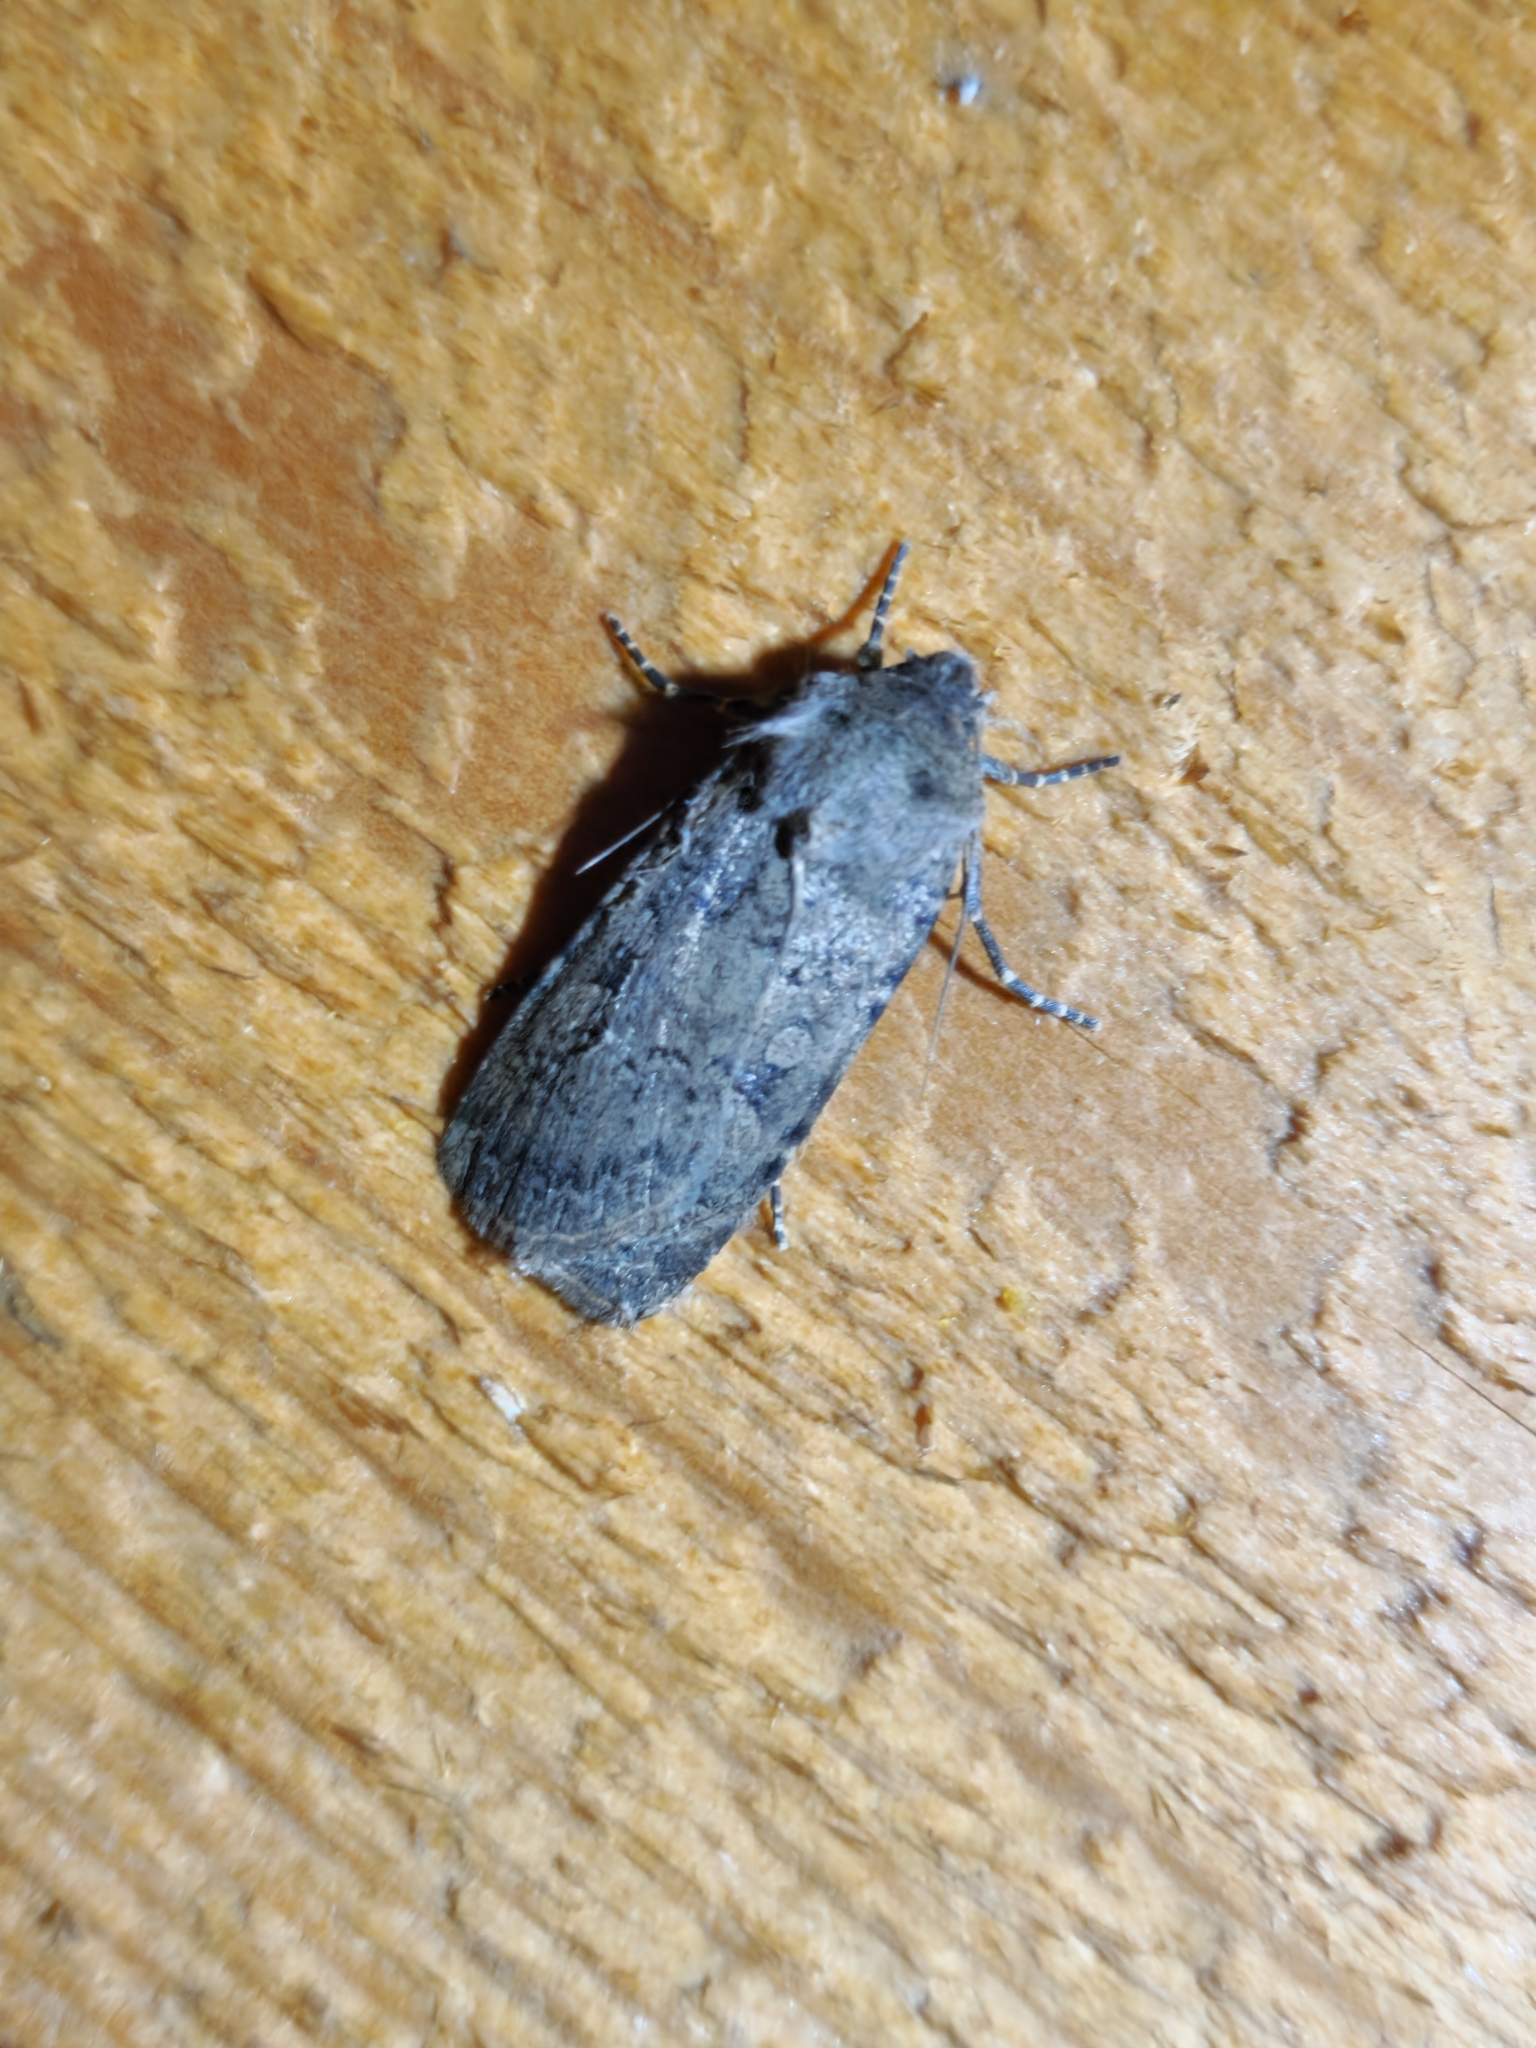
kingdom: Animalia
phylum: Arthropoda
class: Insecta
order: Lepidoptera
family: Noctuidae
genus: Rhyacia
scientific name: Rhyacia simulans
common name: Dotted rustic
